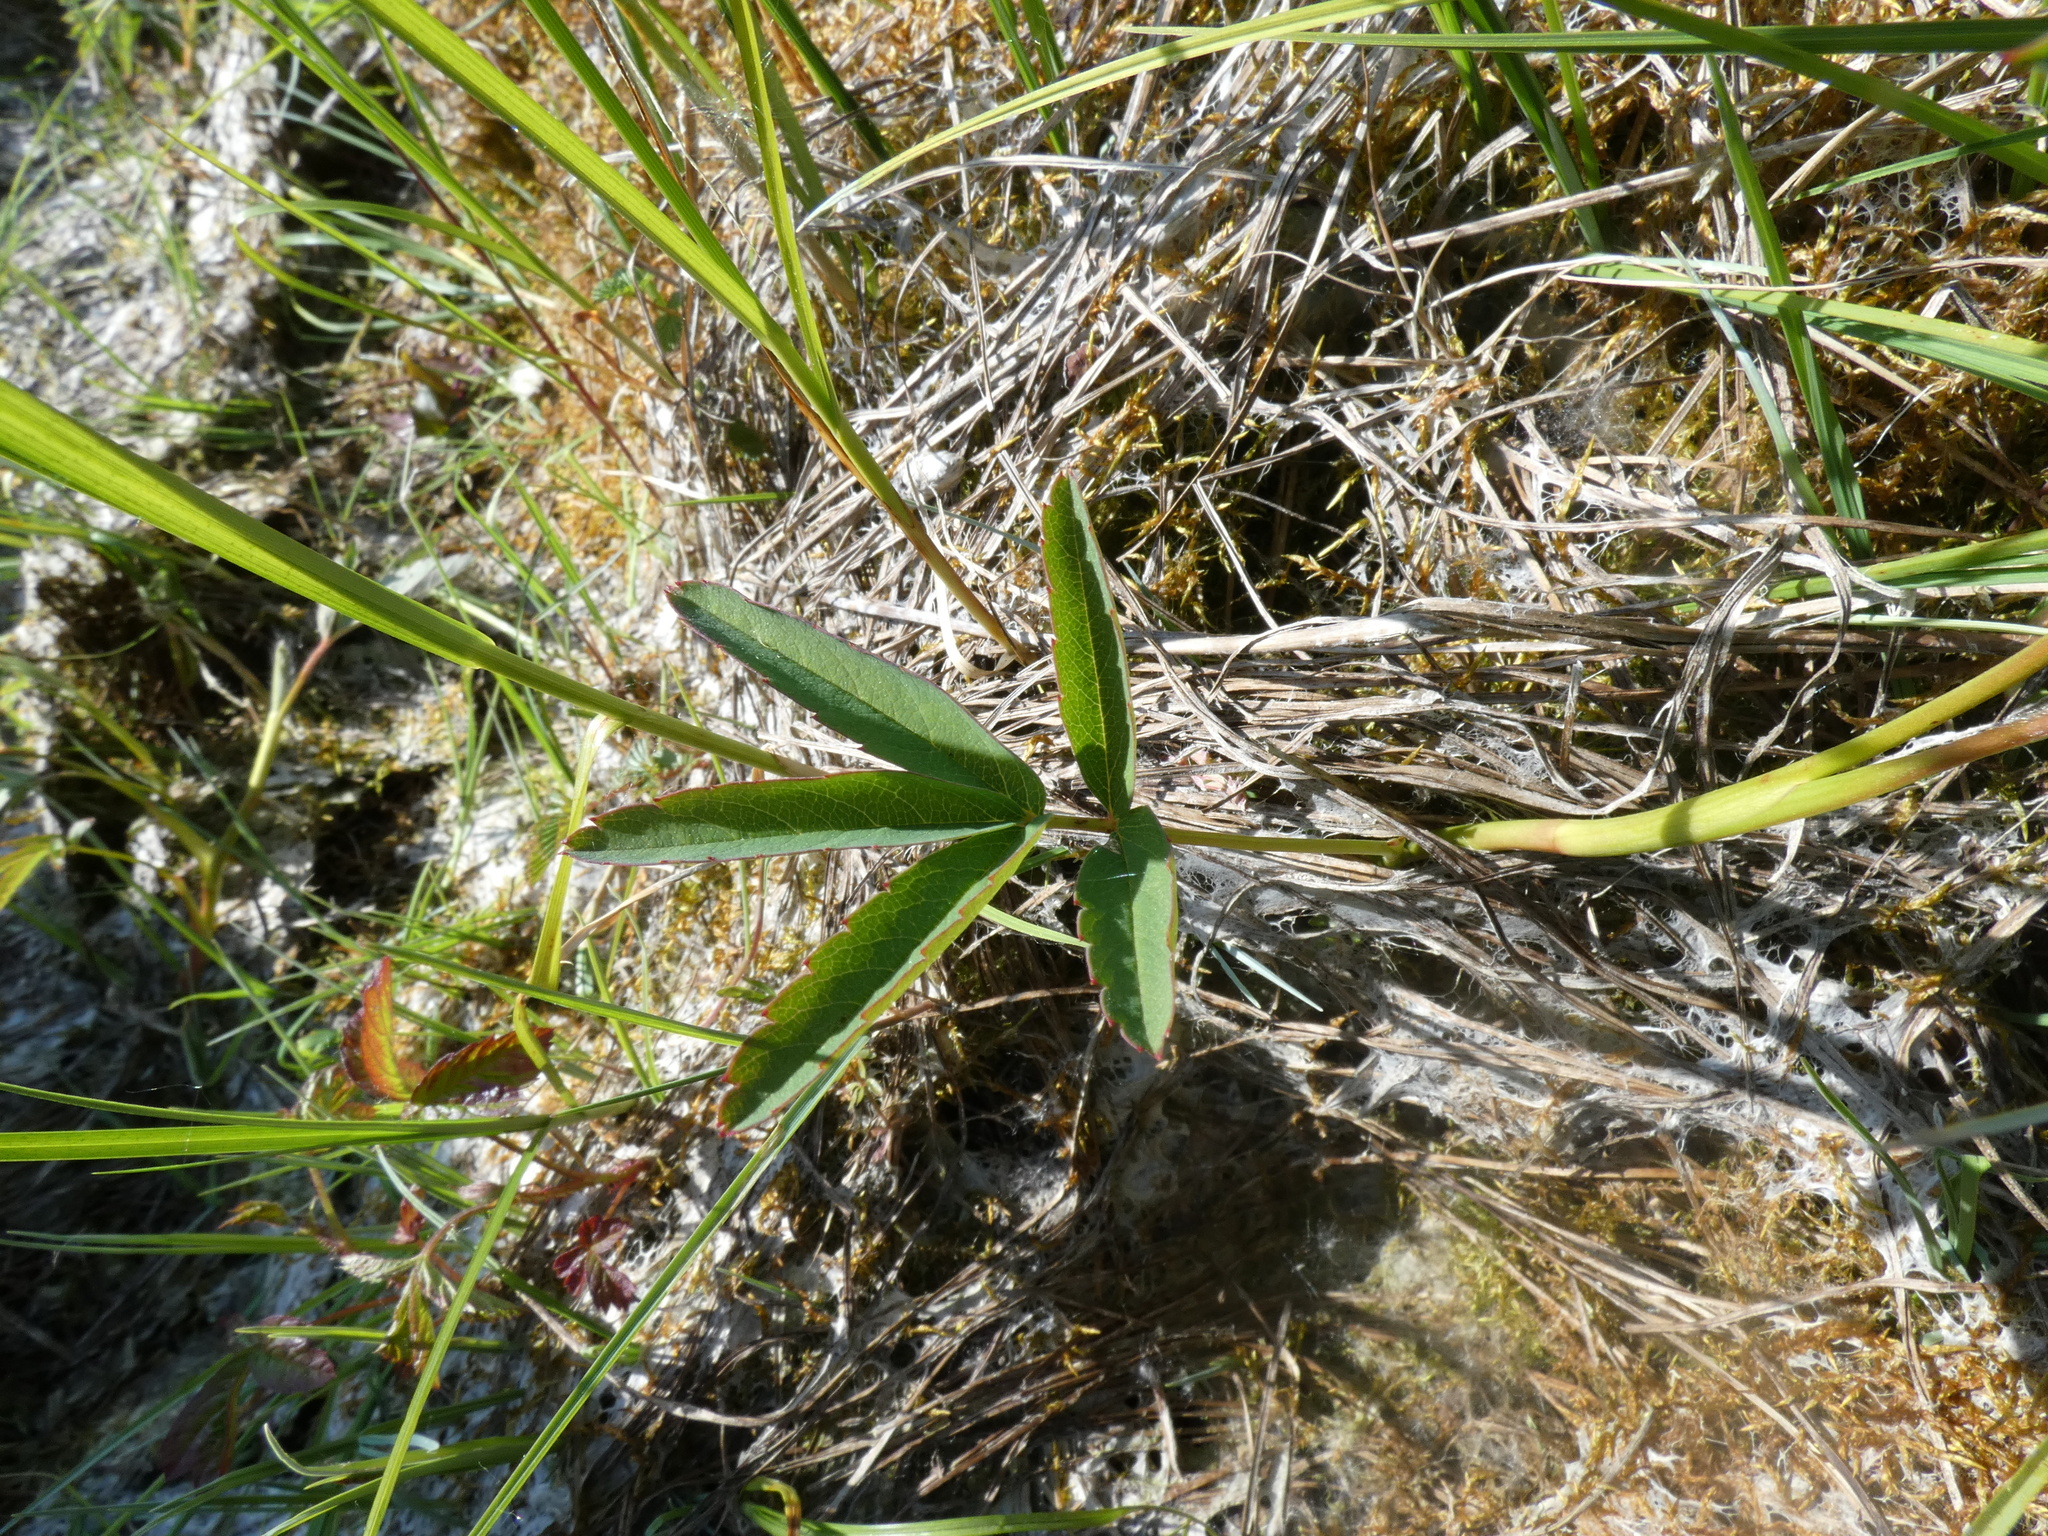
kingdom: Plantae
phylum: Tracheophyta
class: Magnoliopsida
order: Rosales
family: Rosaceae
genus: Comarum
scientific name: Comarum palustre
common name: Marsh cinquefoil
